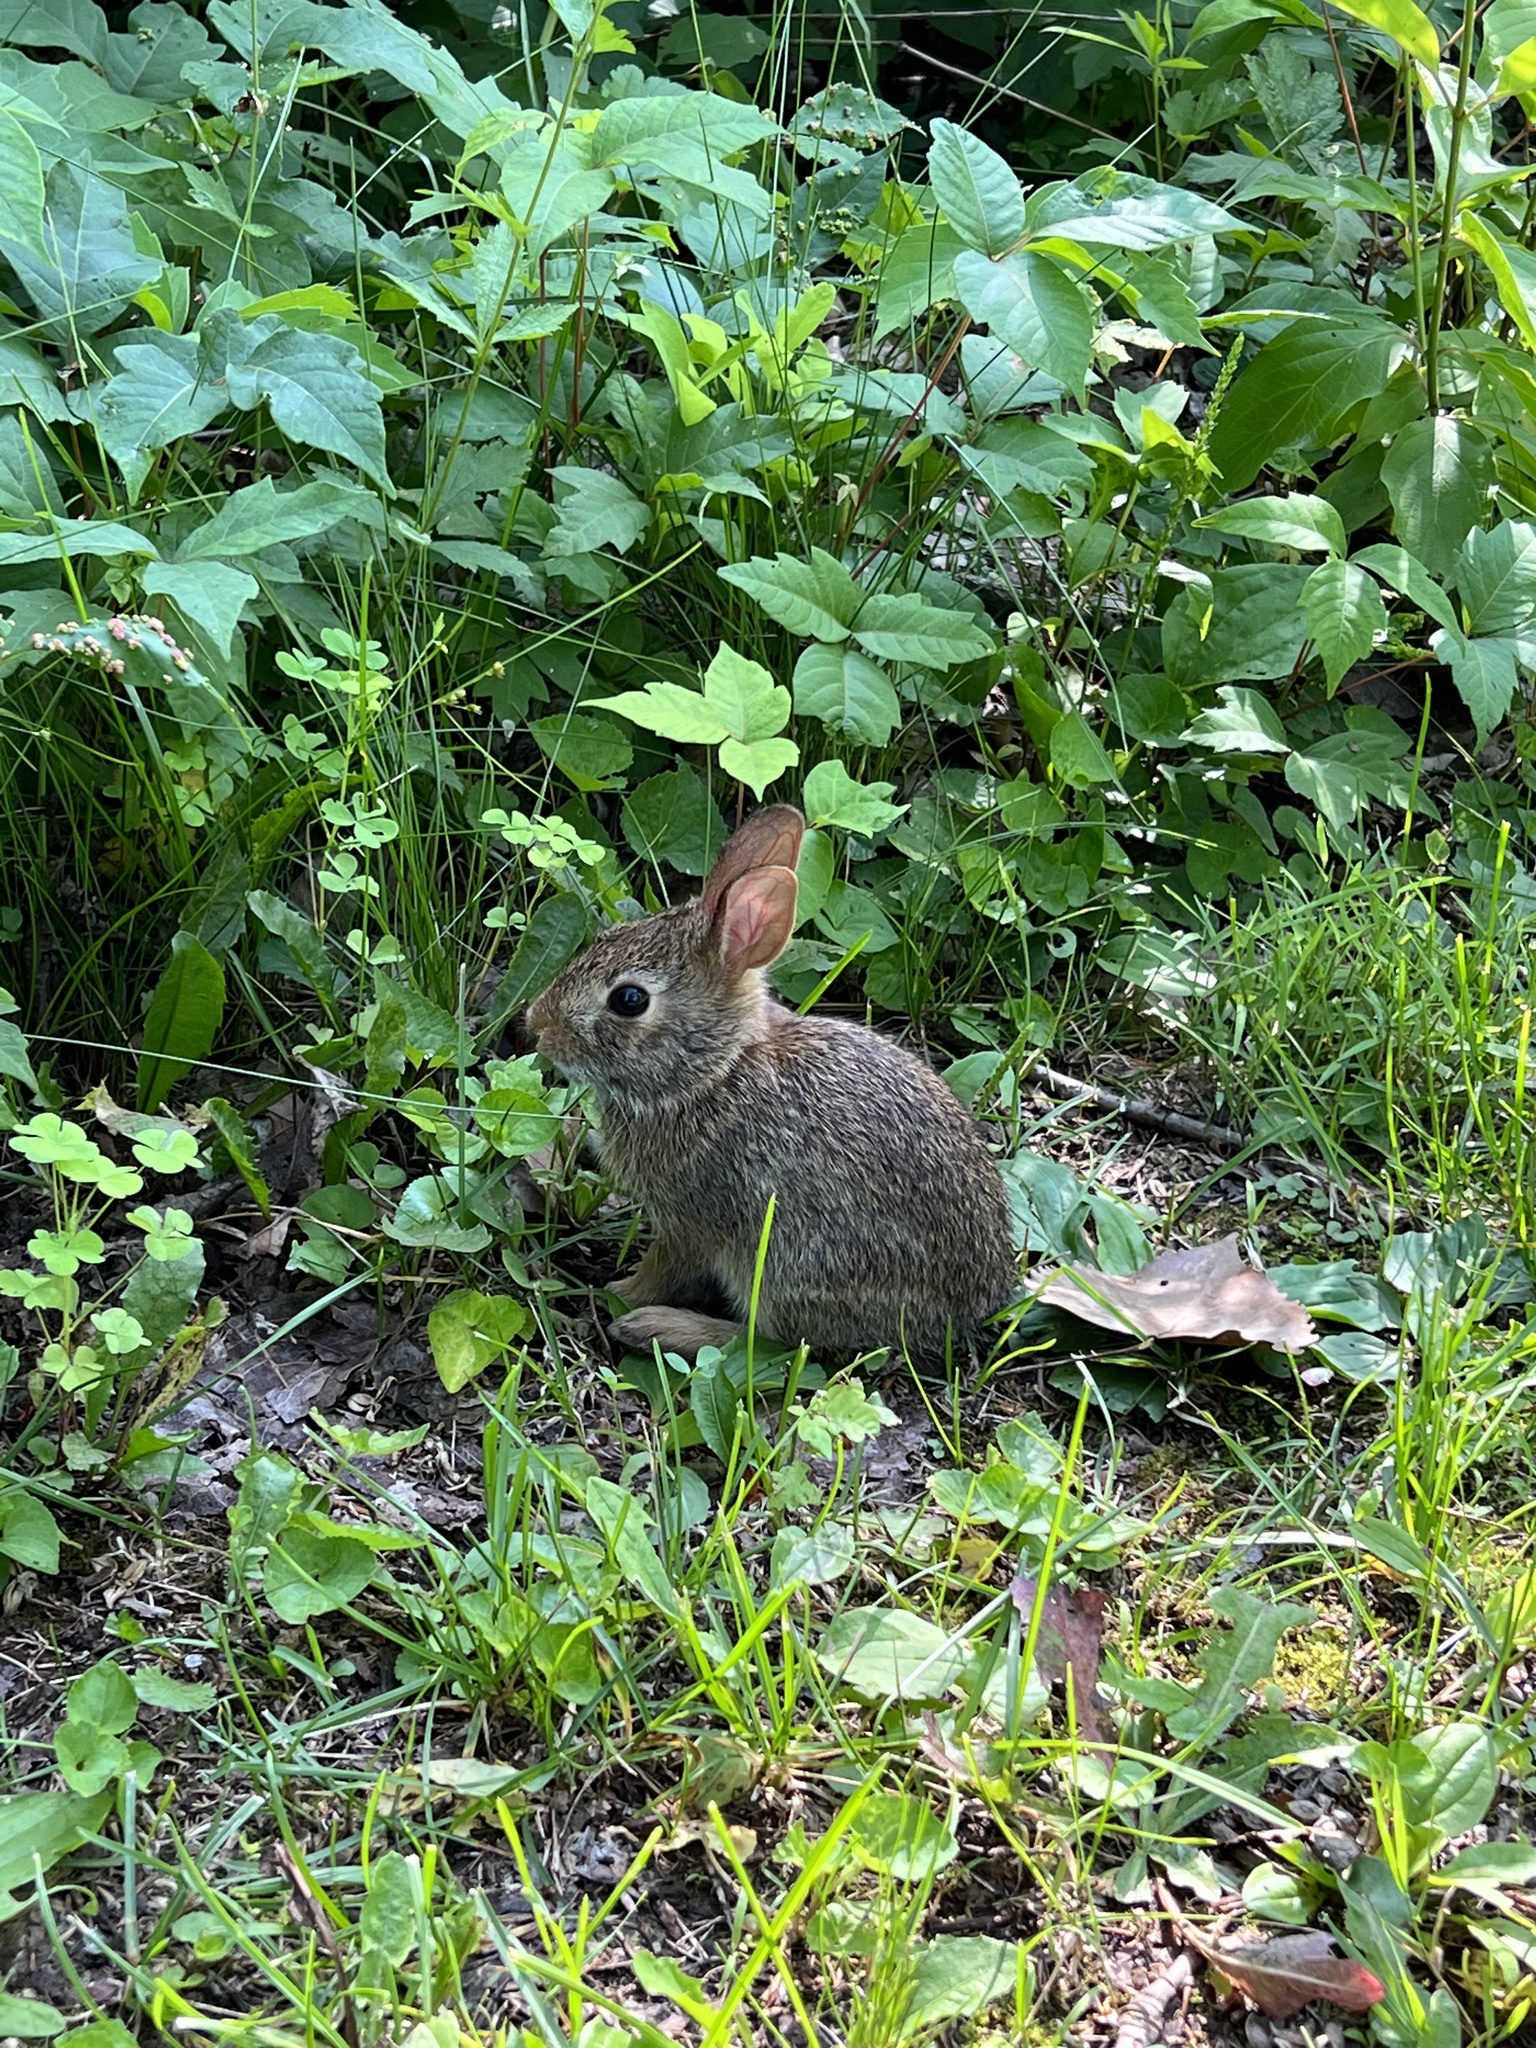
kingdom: Animalia
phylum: Chordata
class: Mammalia
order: Lagomorpha
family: Leporidae
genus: Sylvilagus
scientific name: Sylvilagus floridanus
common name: Eastern cottontail
